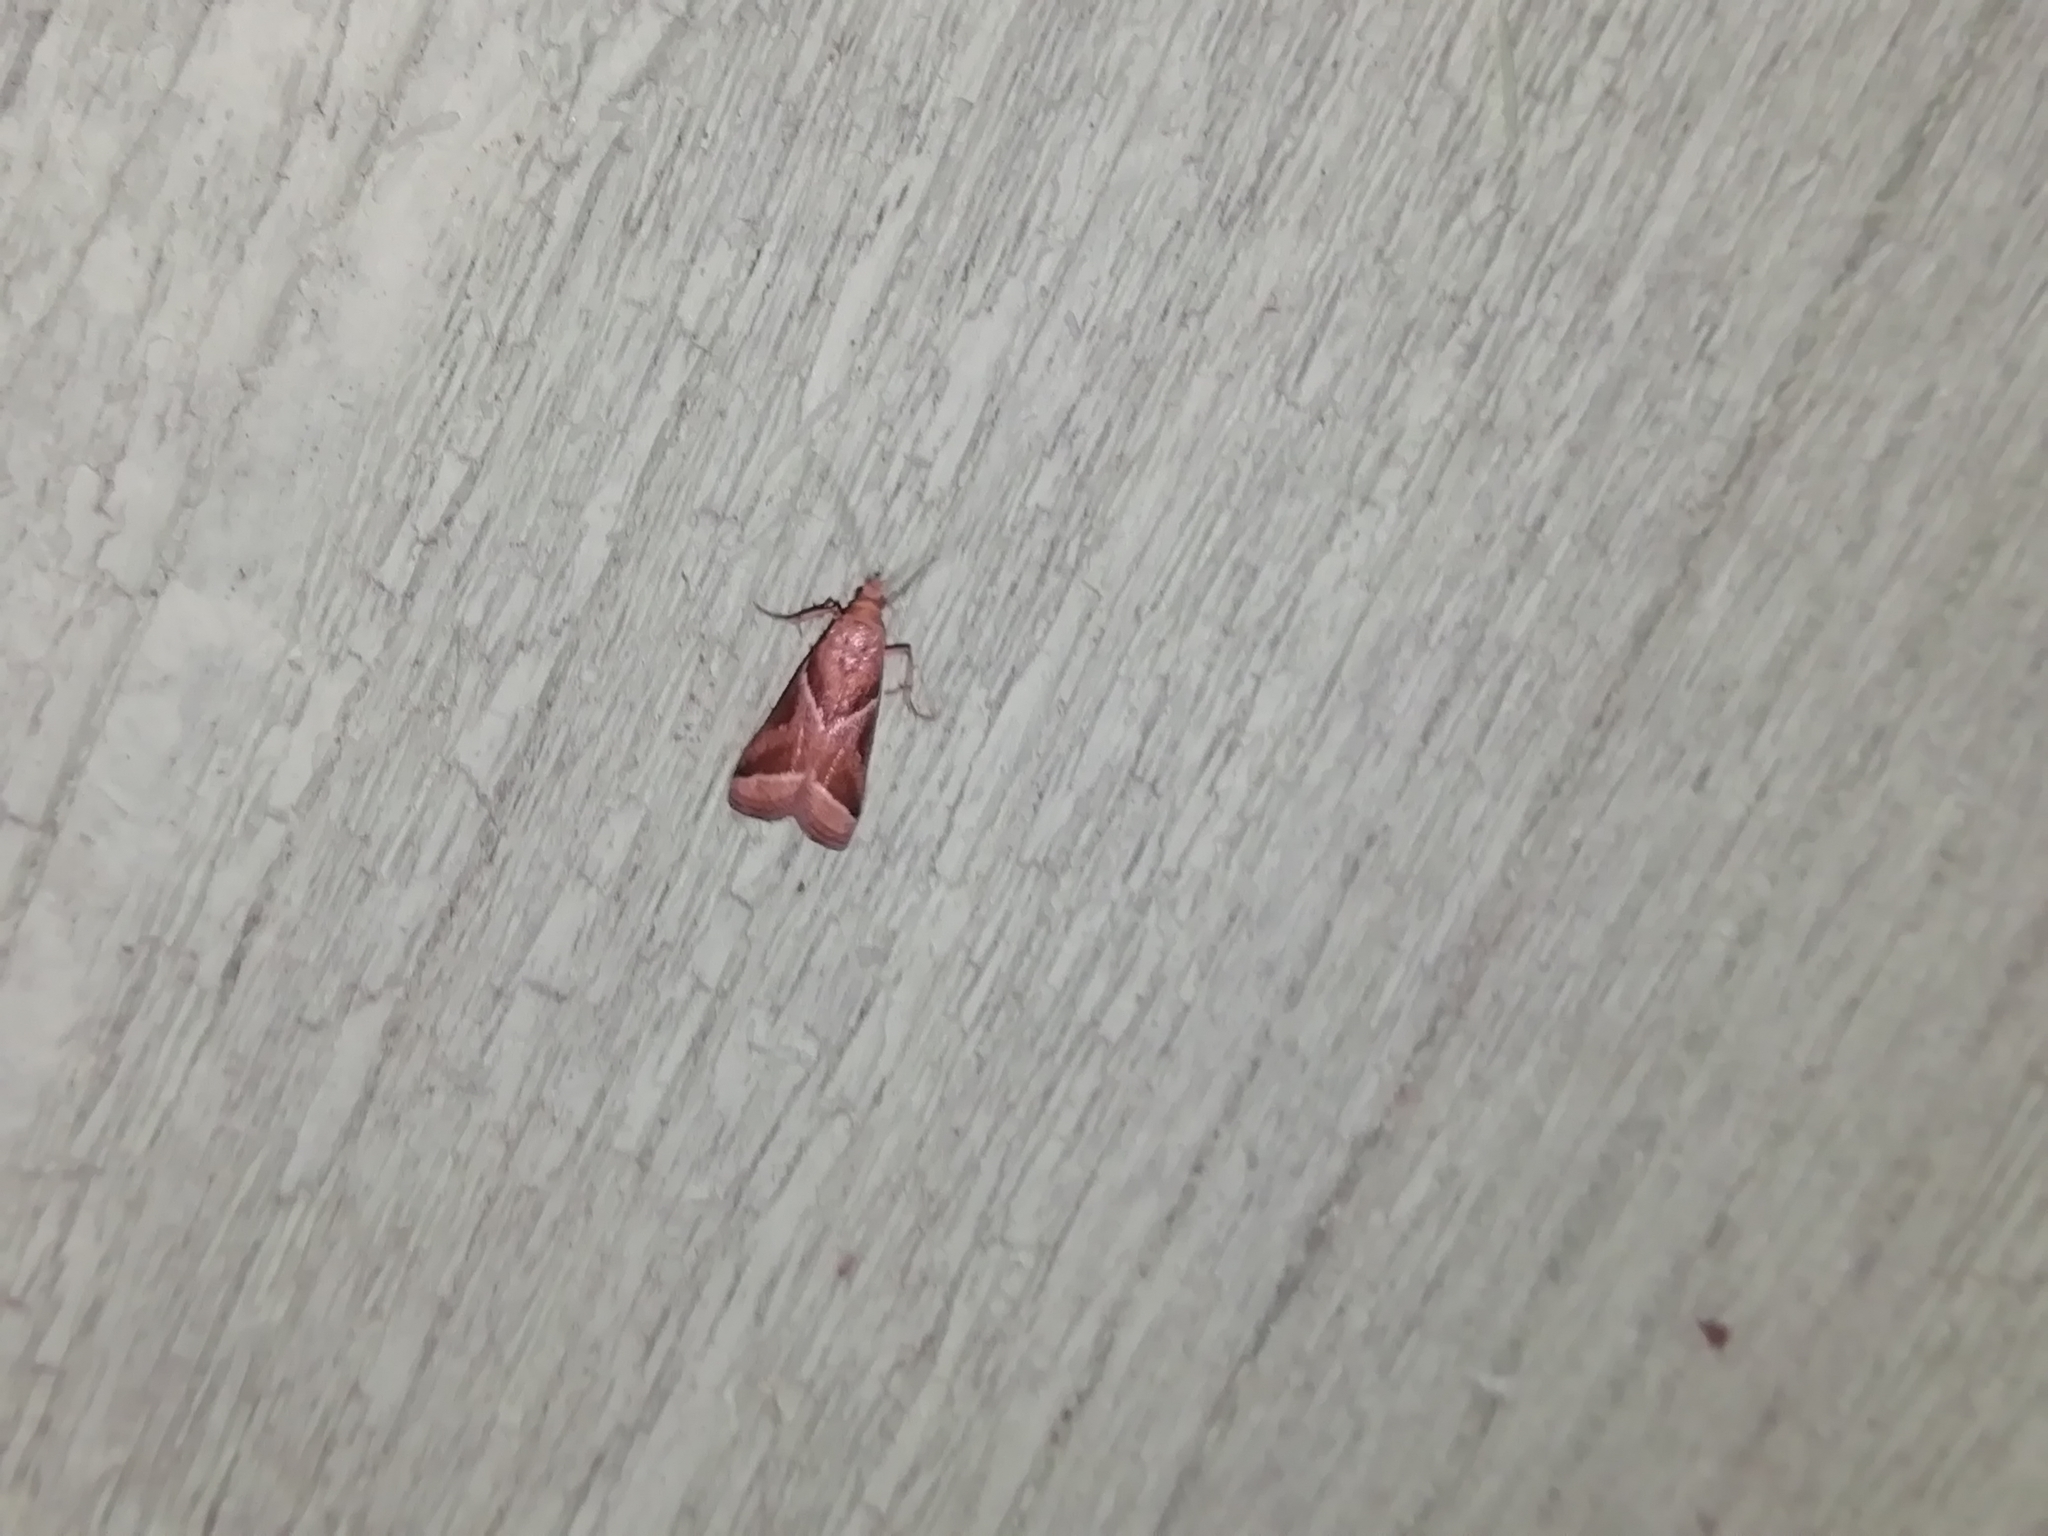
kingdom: Animalia
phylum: Arthropoda
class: Insecta
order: Lepidoptera
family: Pyralidae
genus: Nyctegretis
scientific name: Nyctegretis lineana
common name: Agate knot-horn
